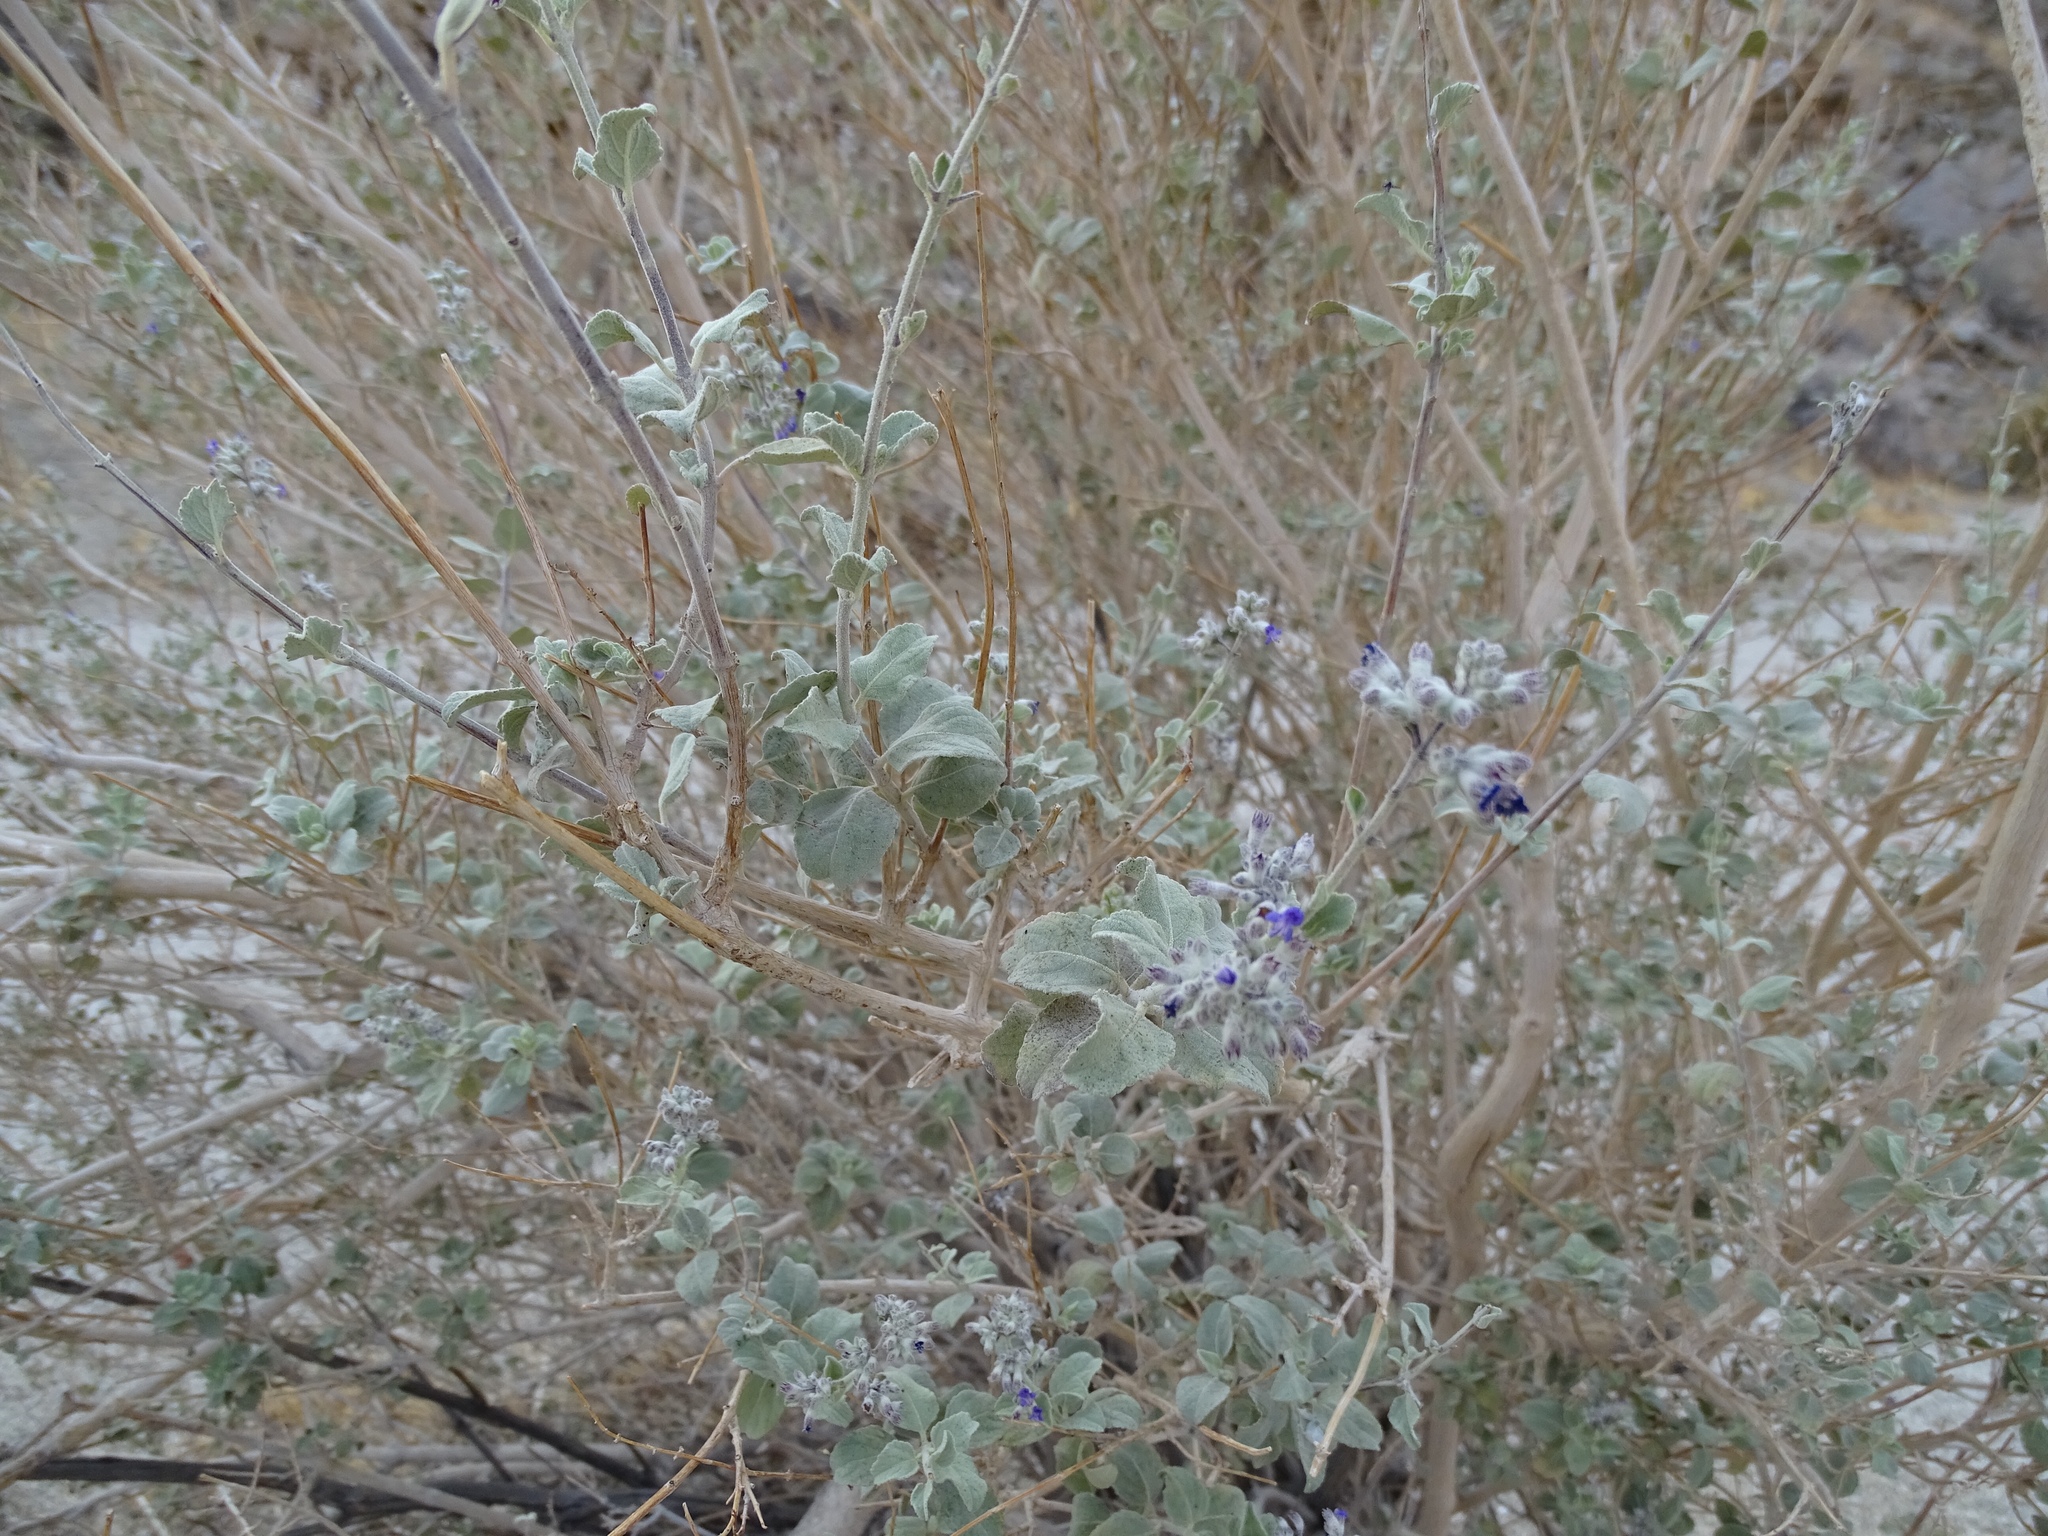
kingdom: Plantae
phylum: Tracheophyta
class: Magnoliopsida
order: Lamiales
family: Lamiaceae
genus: Condea
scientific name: Condea emoryi
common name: Chia
